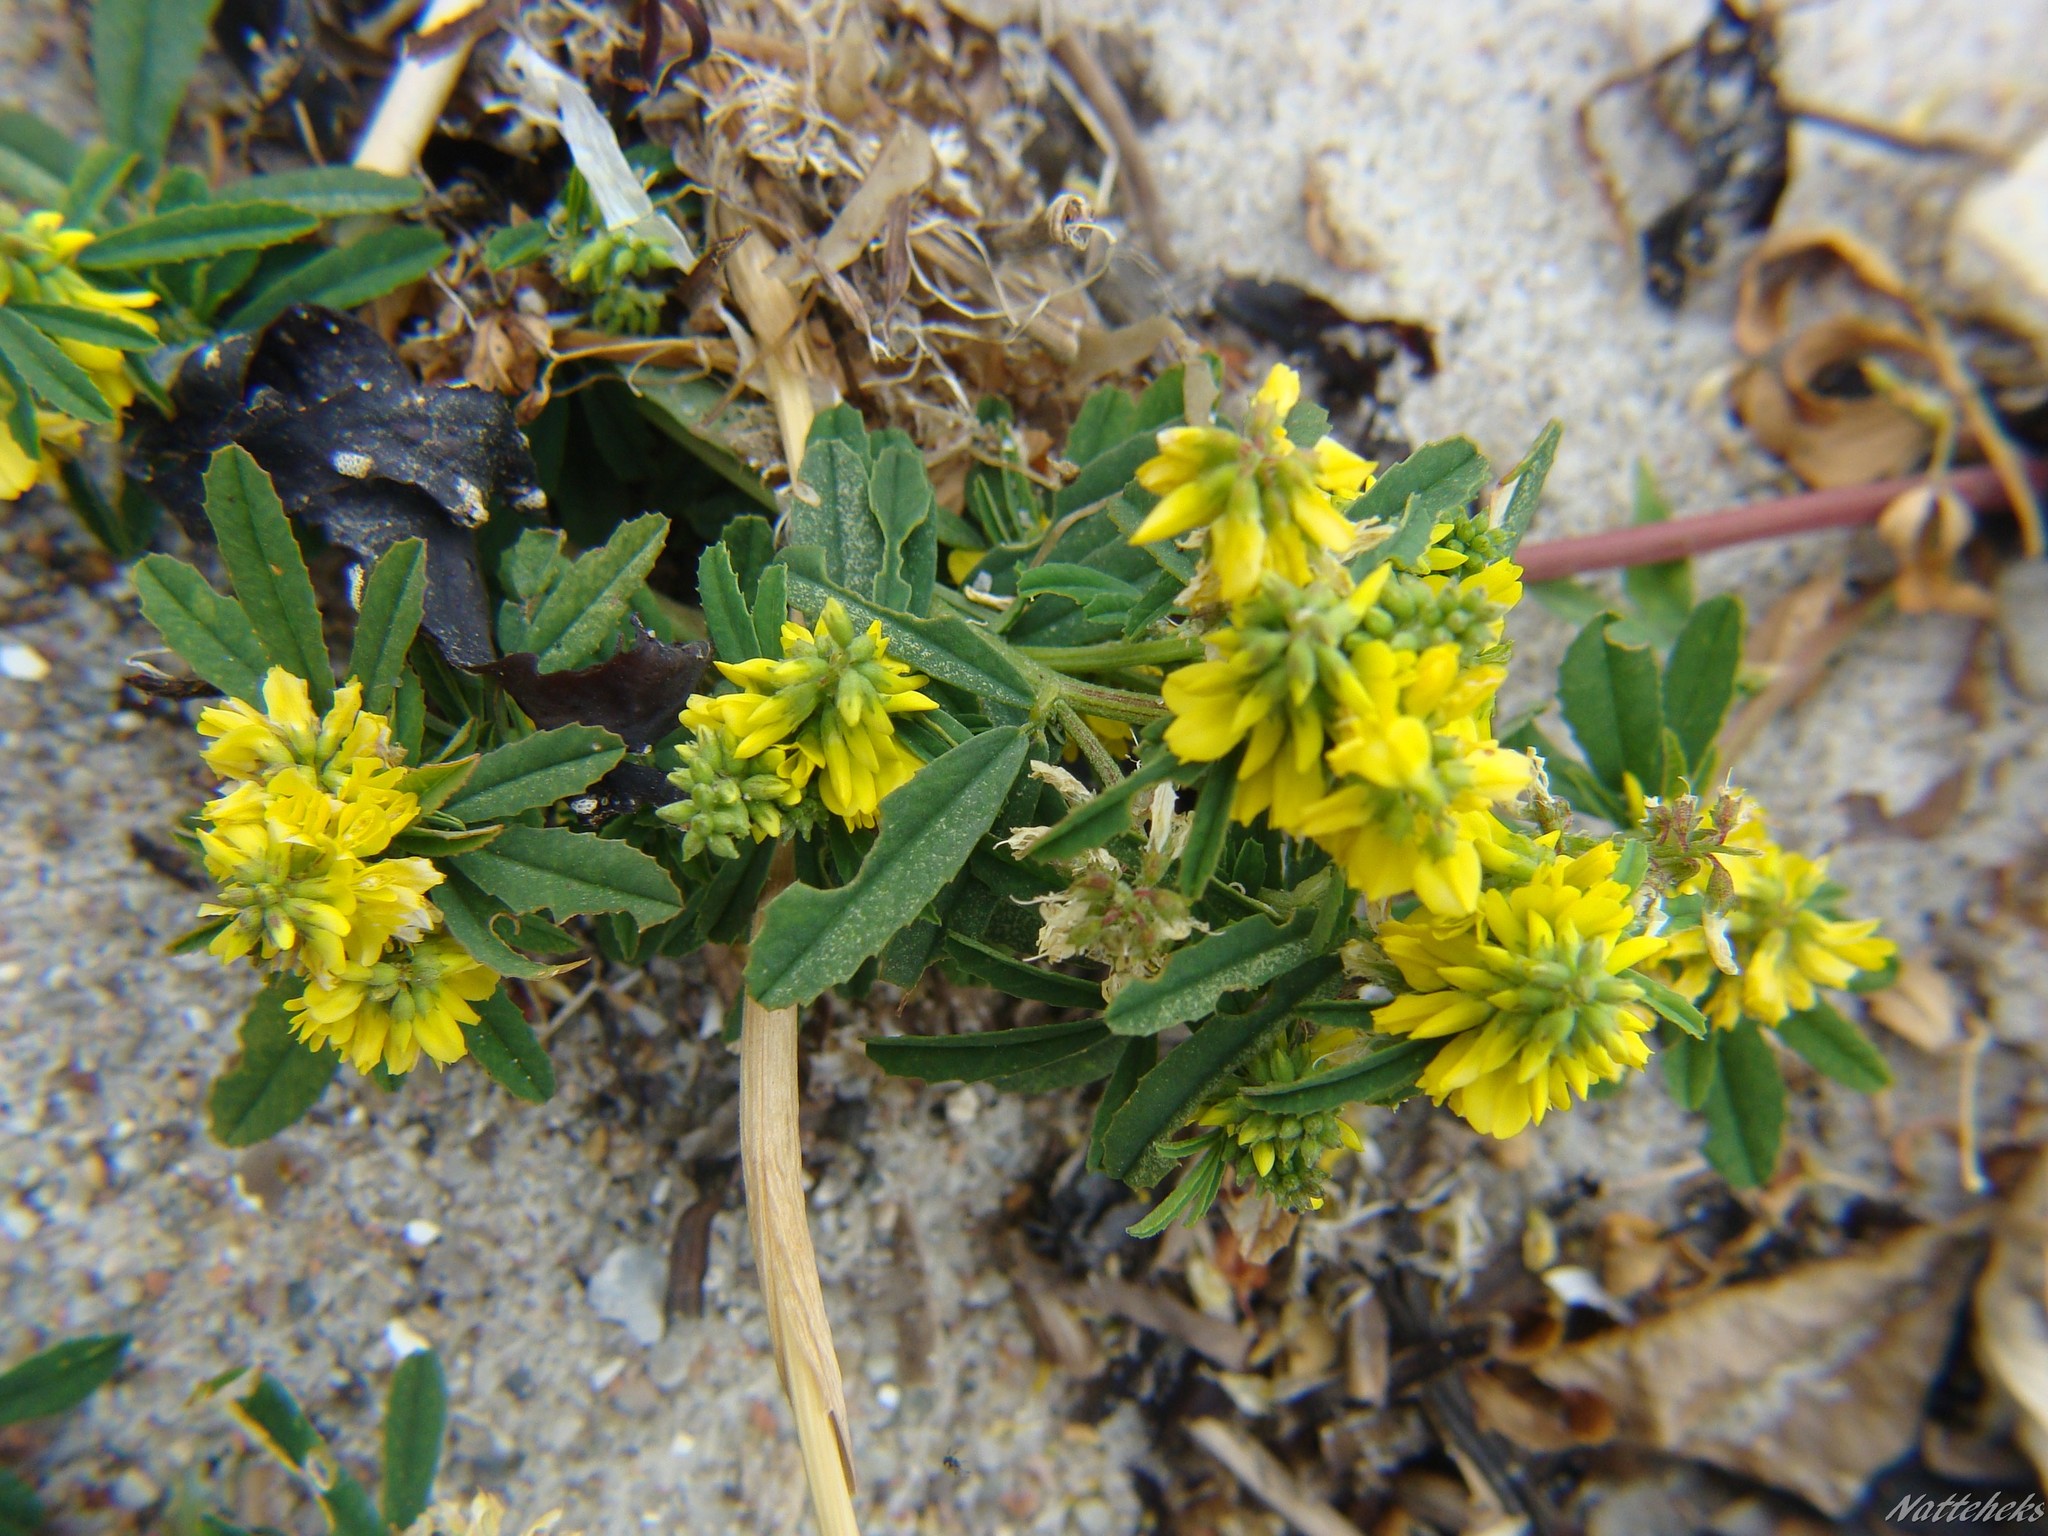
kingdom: Plantae
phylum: Tracheophyta
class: Magnoliopsida
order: Fabales
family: Fabaceae
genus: Melilotus
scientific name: Melilotus officinalis
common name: Sweetclover
